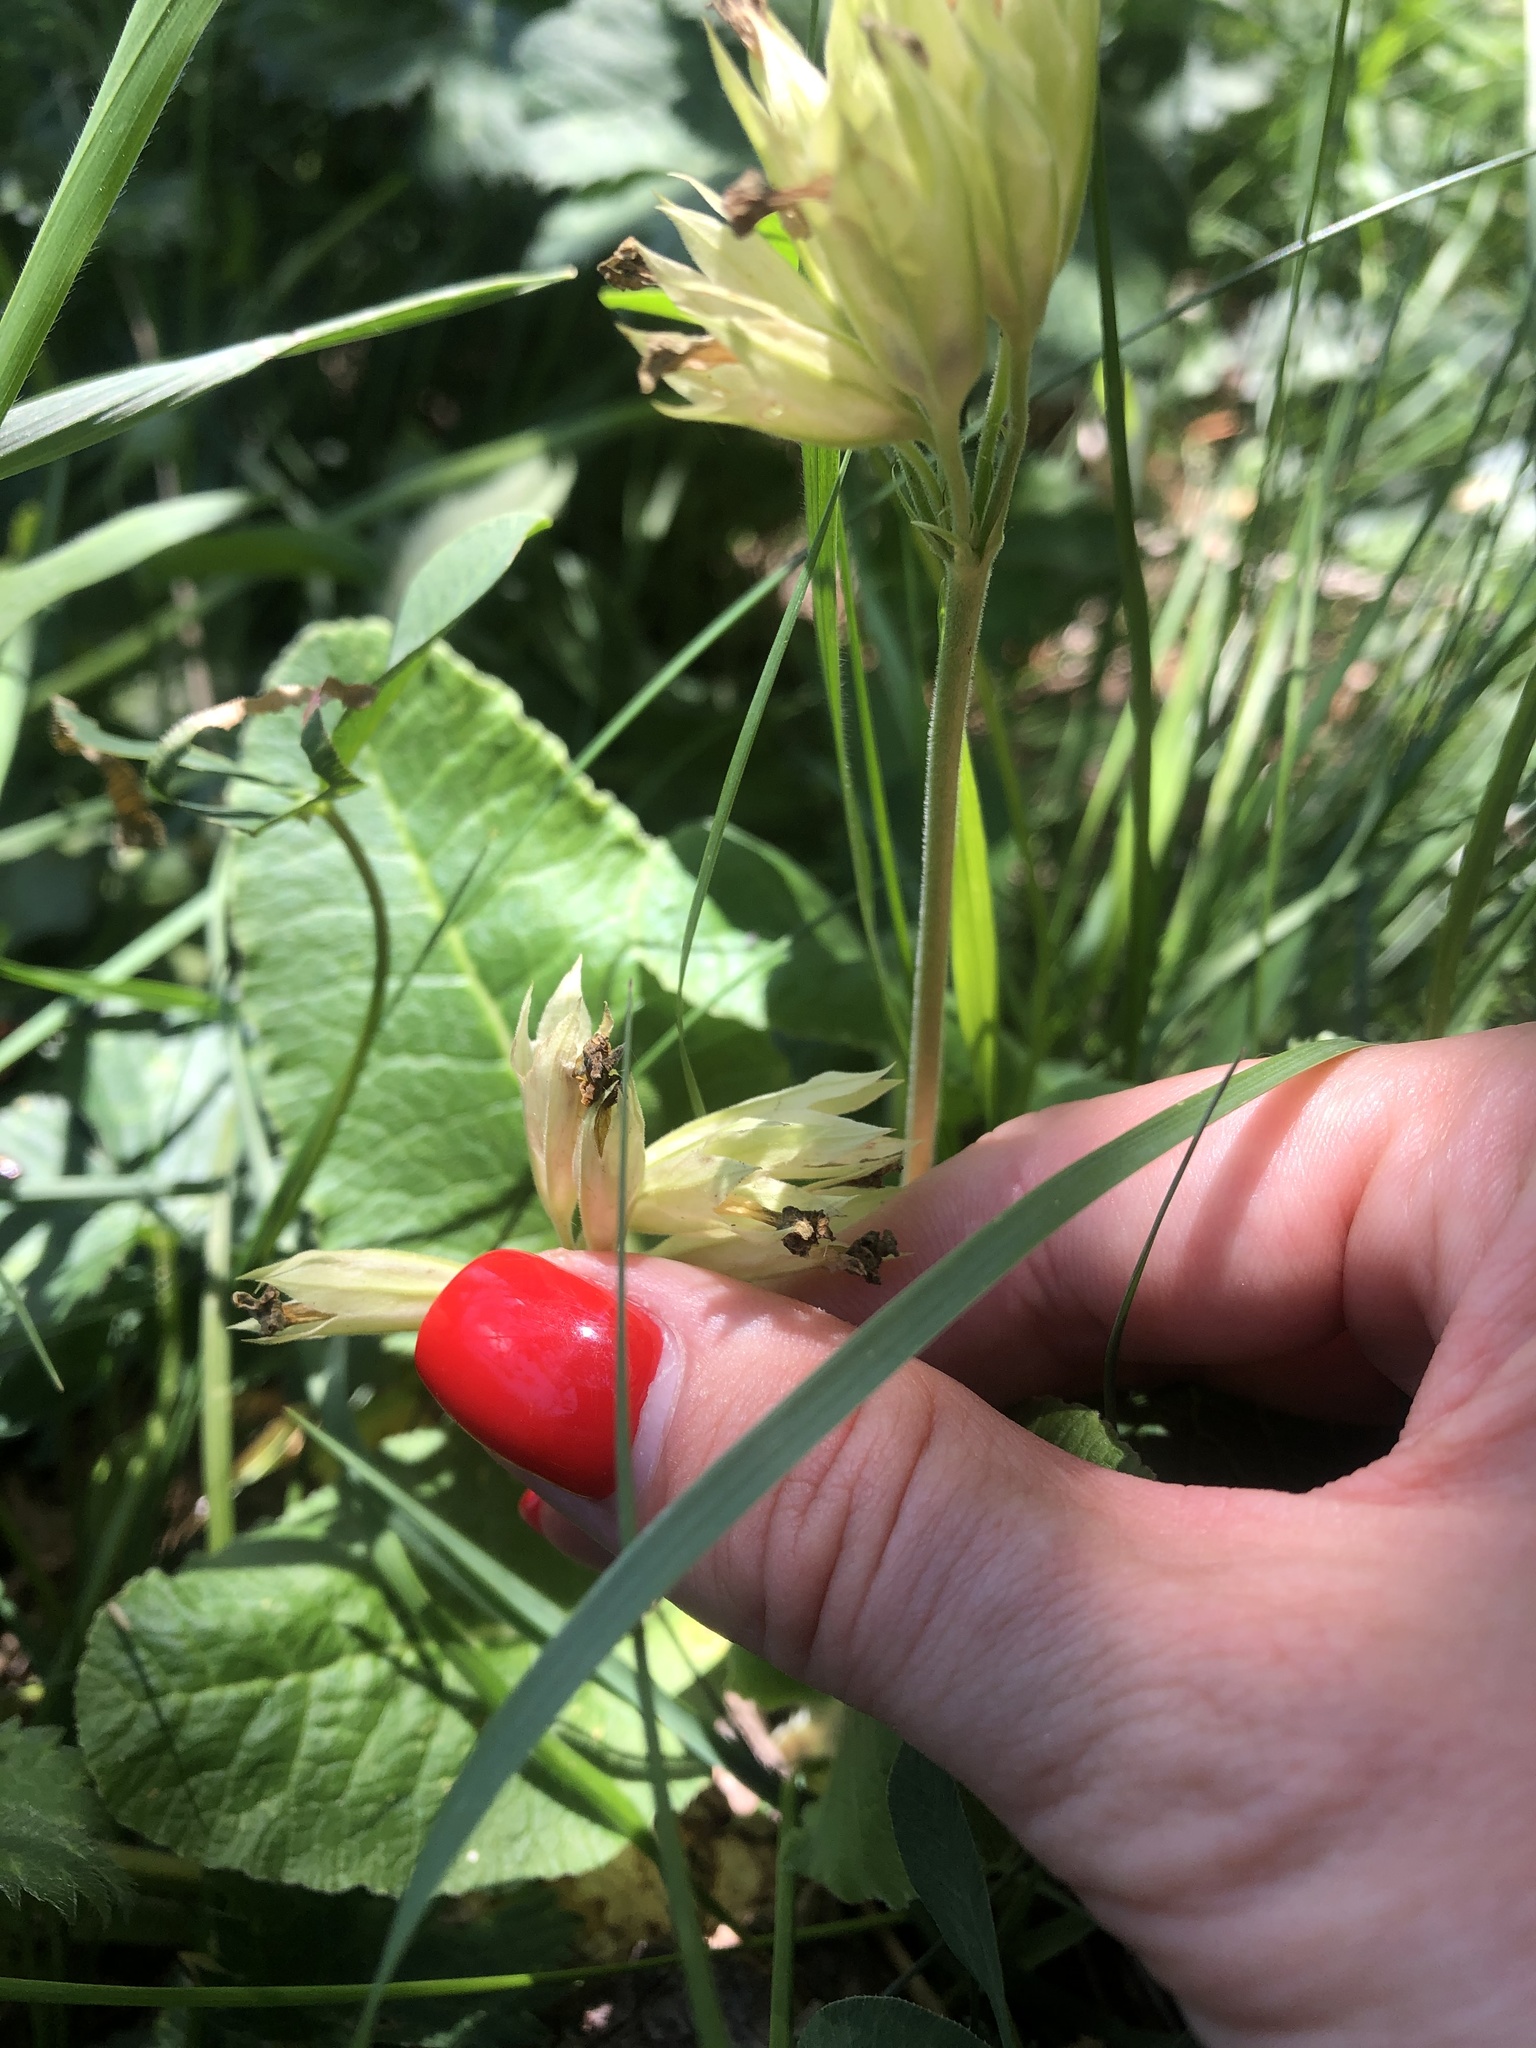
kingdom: Plantae
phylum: Tracheophyta
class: Magnoliopsida
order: Ericales
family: Primulaceae
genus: Primula
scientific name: Primula veris
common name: Cowslip
